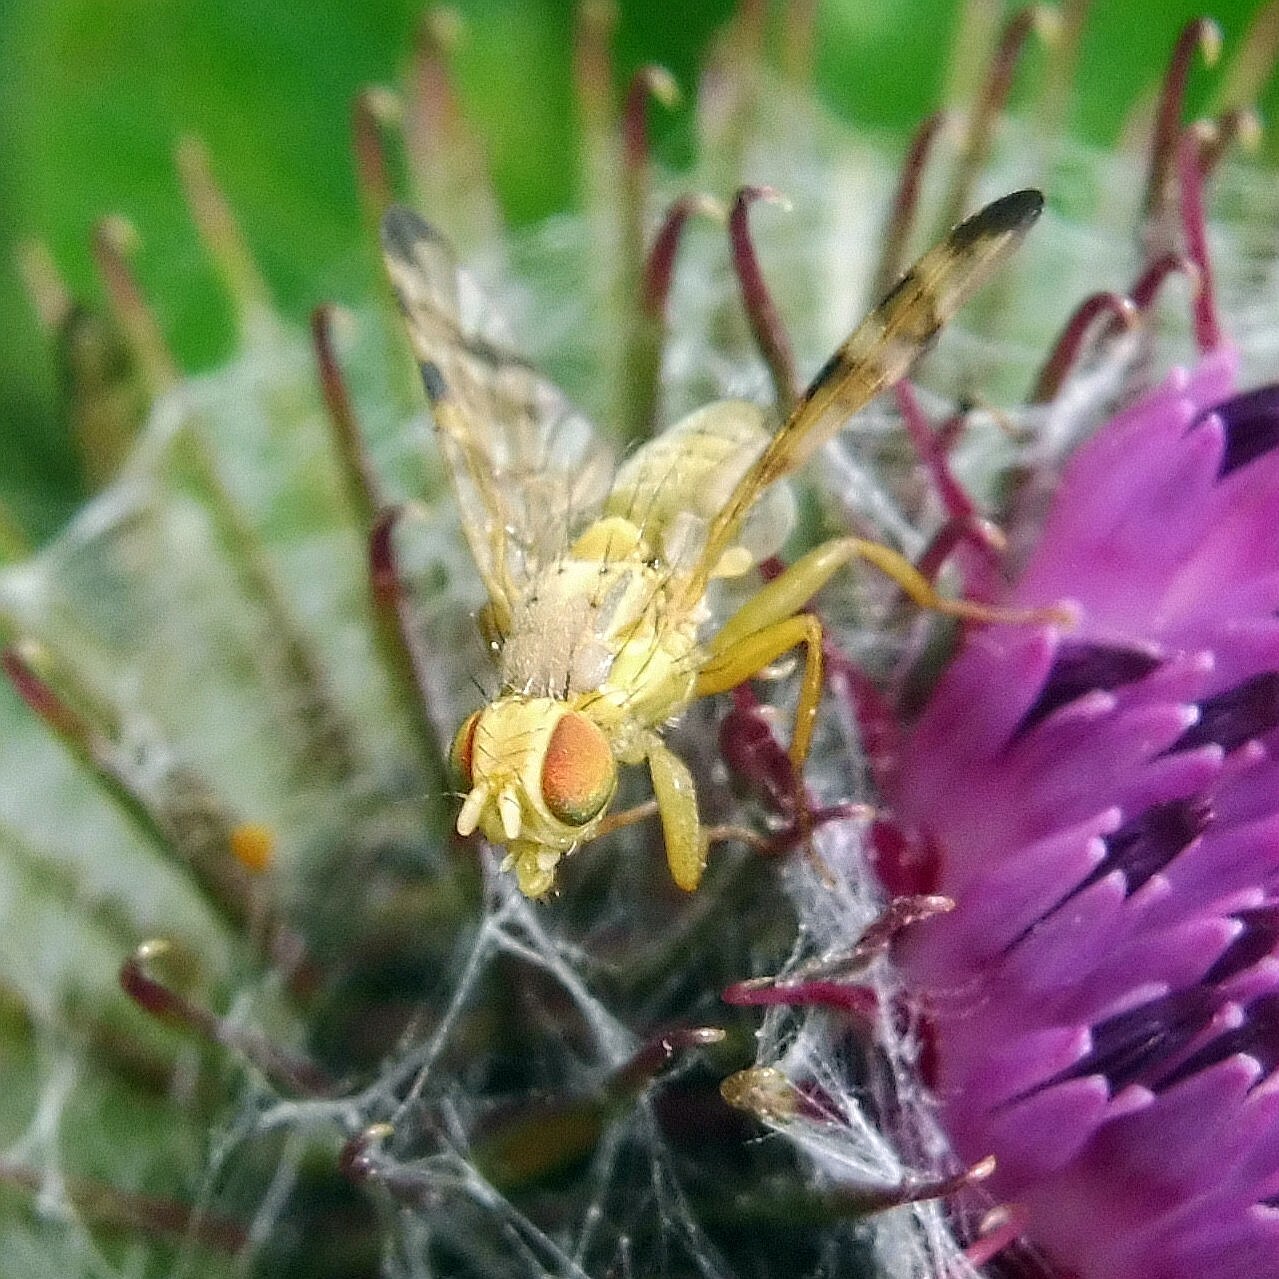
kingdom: Animalia
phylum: Arthropoda
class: Insecta
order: Diptera
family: Tephritidae
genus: Terellia
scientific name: Terellia tussilaginis
